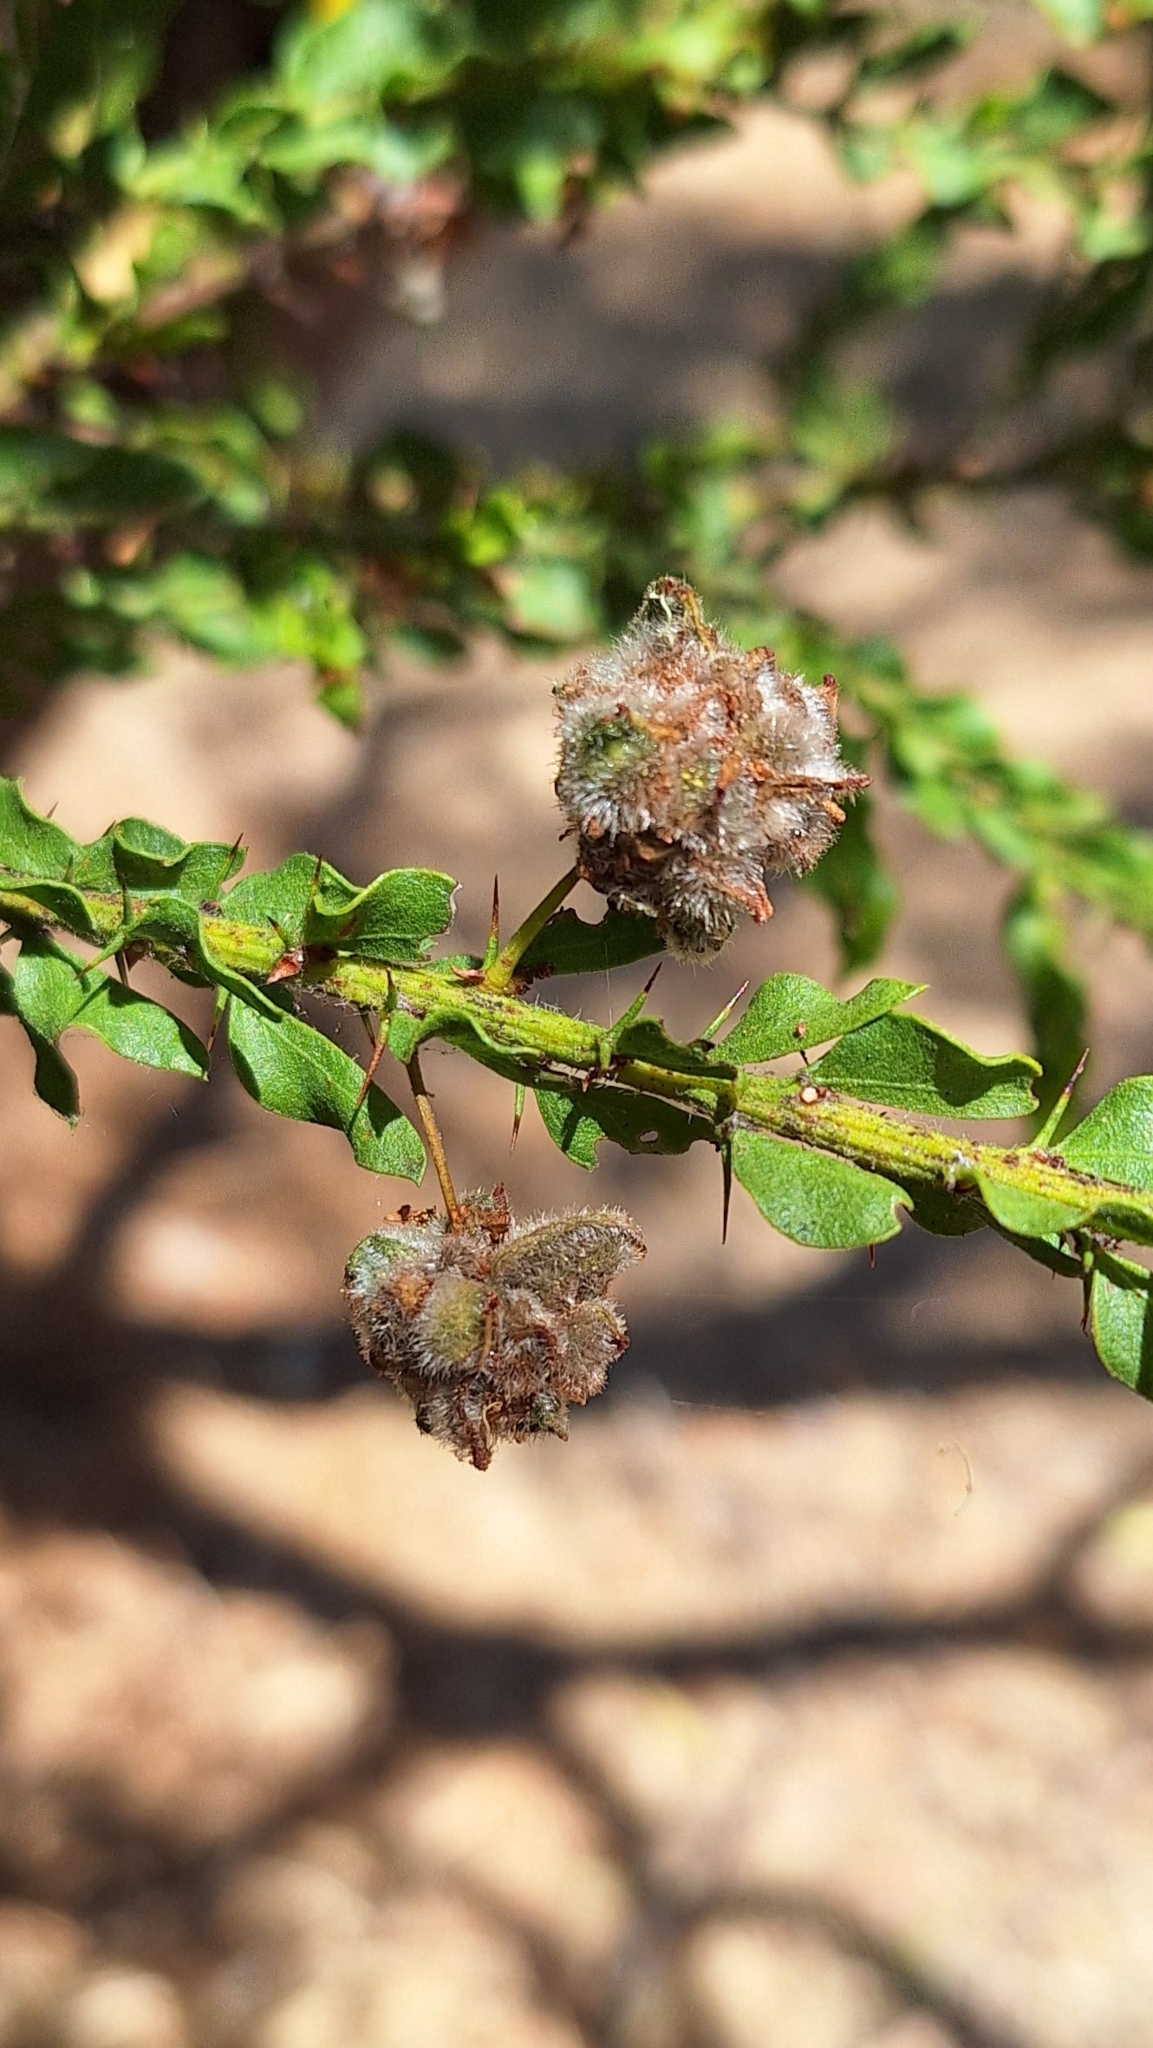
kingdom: Plantae
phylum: Tracheophyta
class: Magnoliopsida
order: Fabales
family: Fabaceae
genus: Acacia
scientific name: Acacia paradoxa
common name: Paradox acacia
